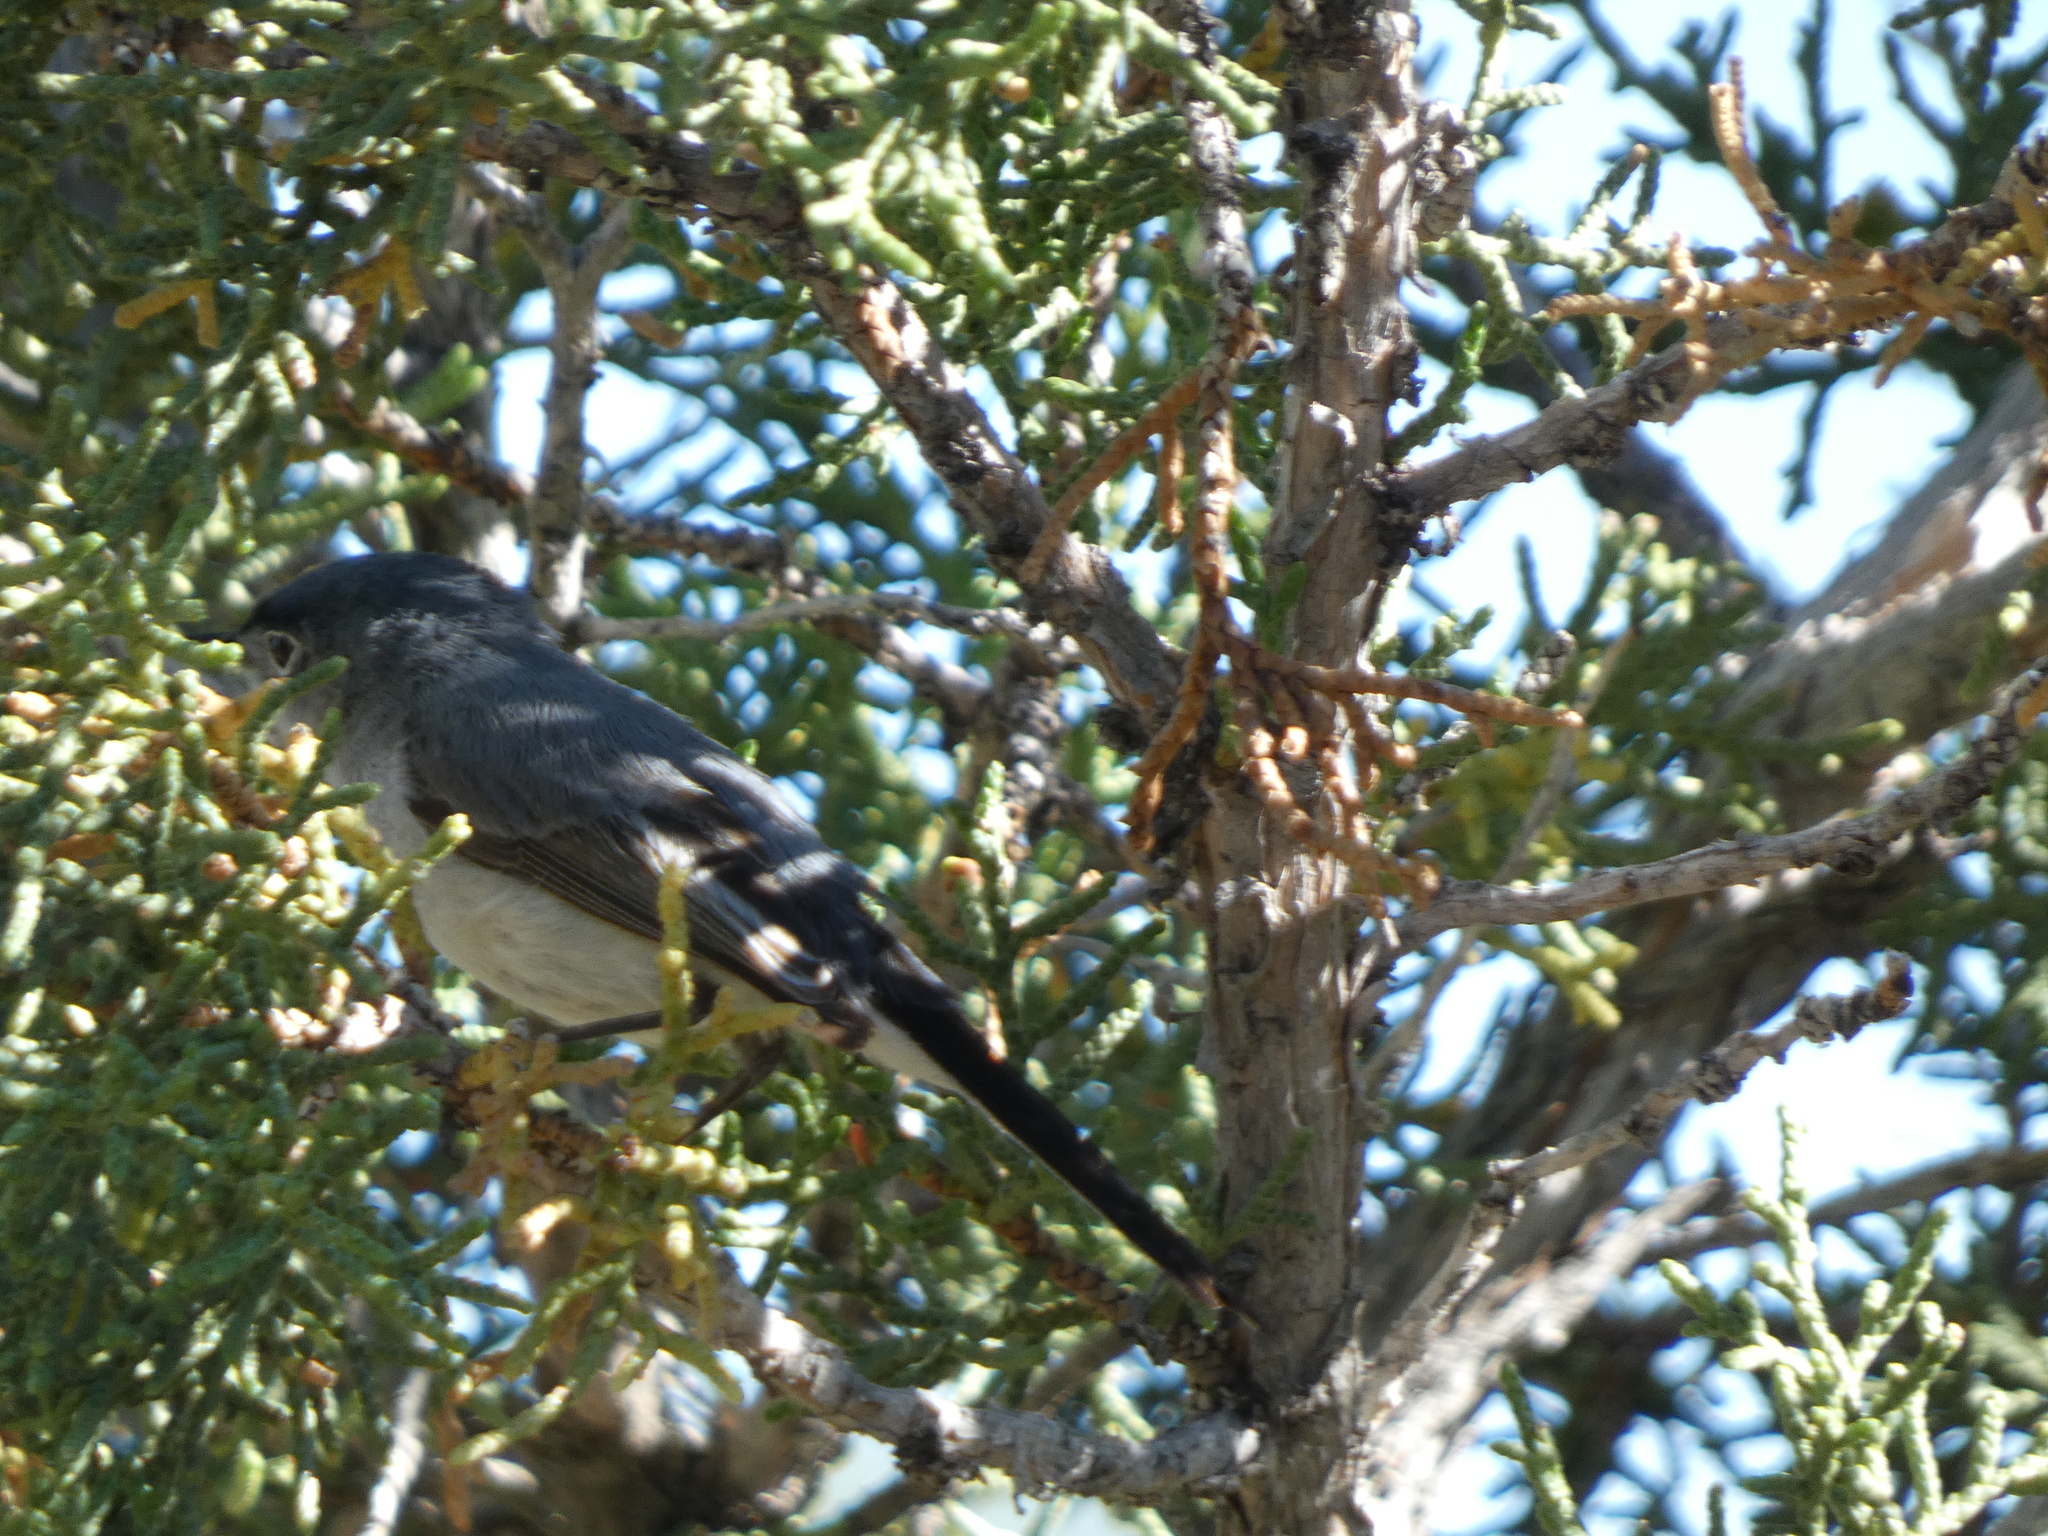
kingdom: Animalia
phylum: Chordata
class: Aves
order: Passeriformes
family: Polioptilidae
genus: Polioptila
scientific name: Polioptila caerulea
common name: Blue-gray gnatcatcher
